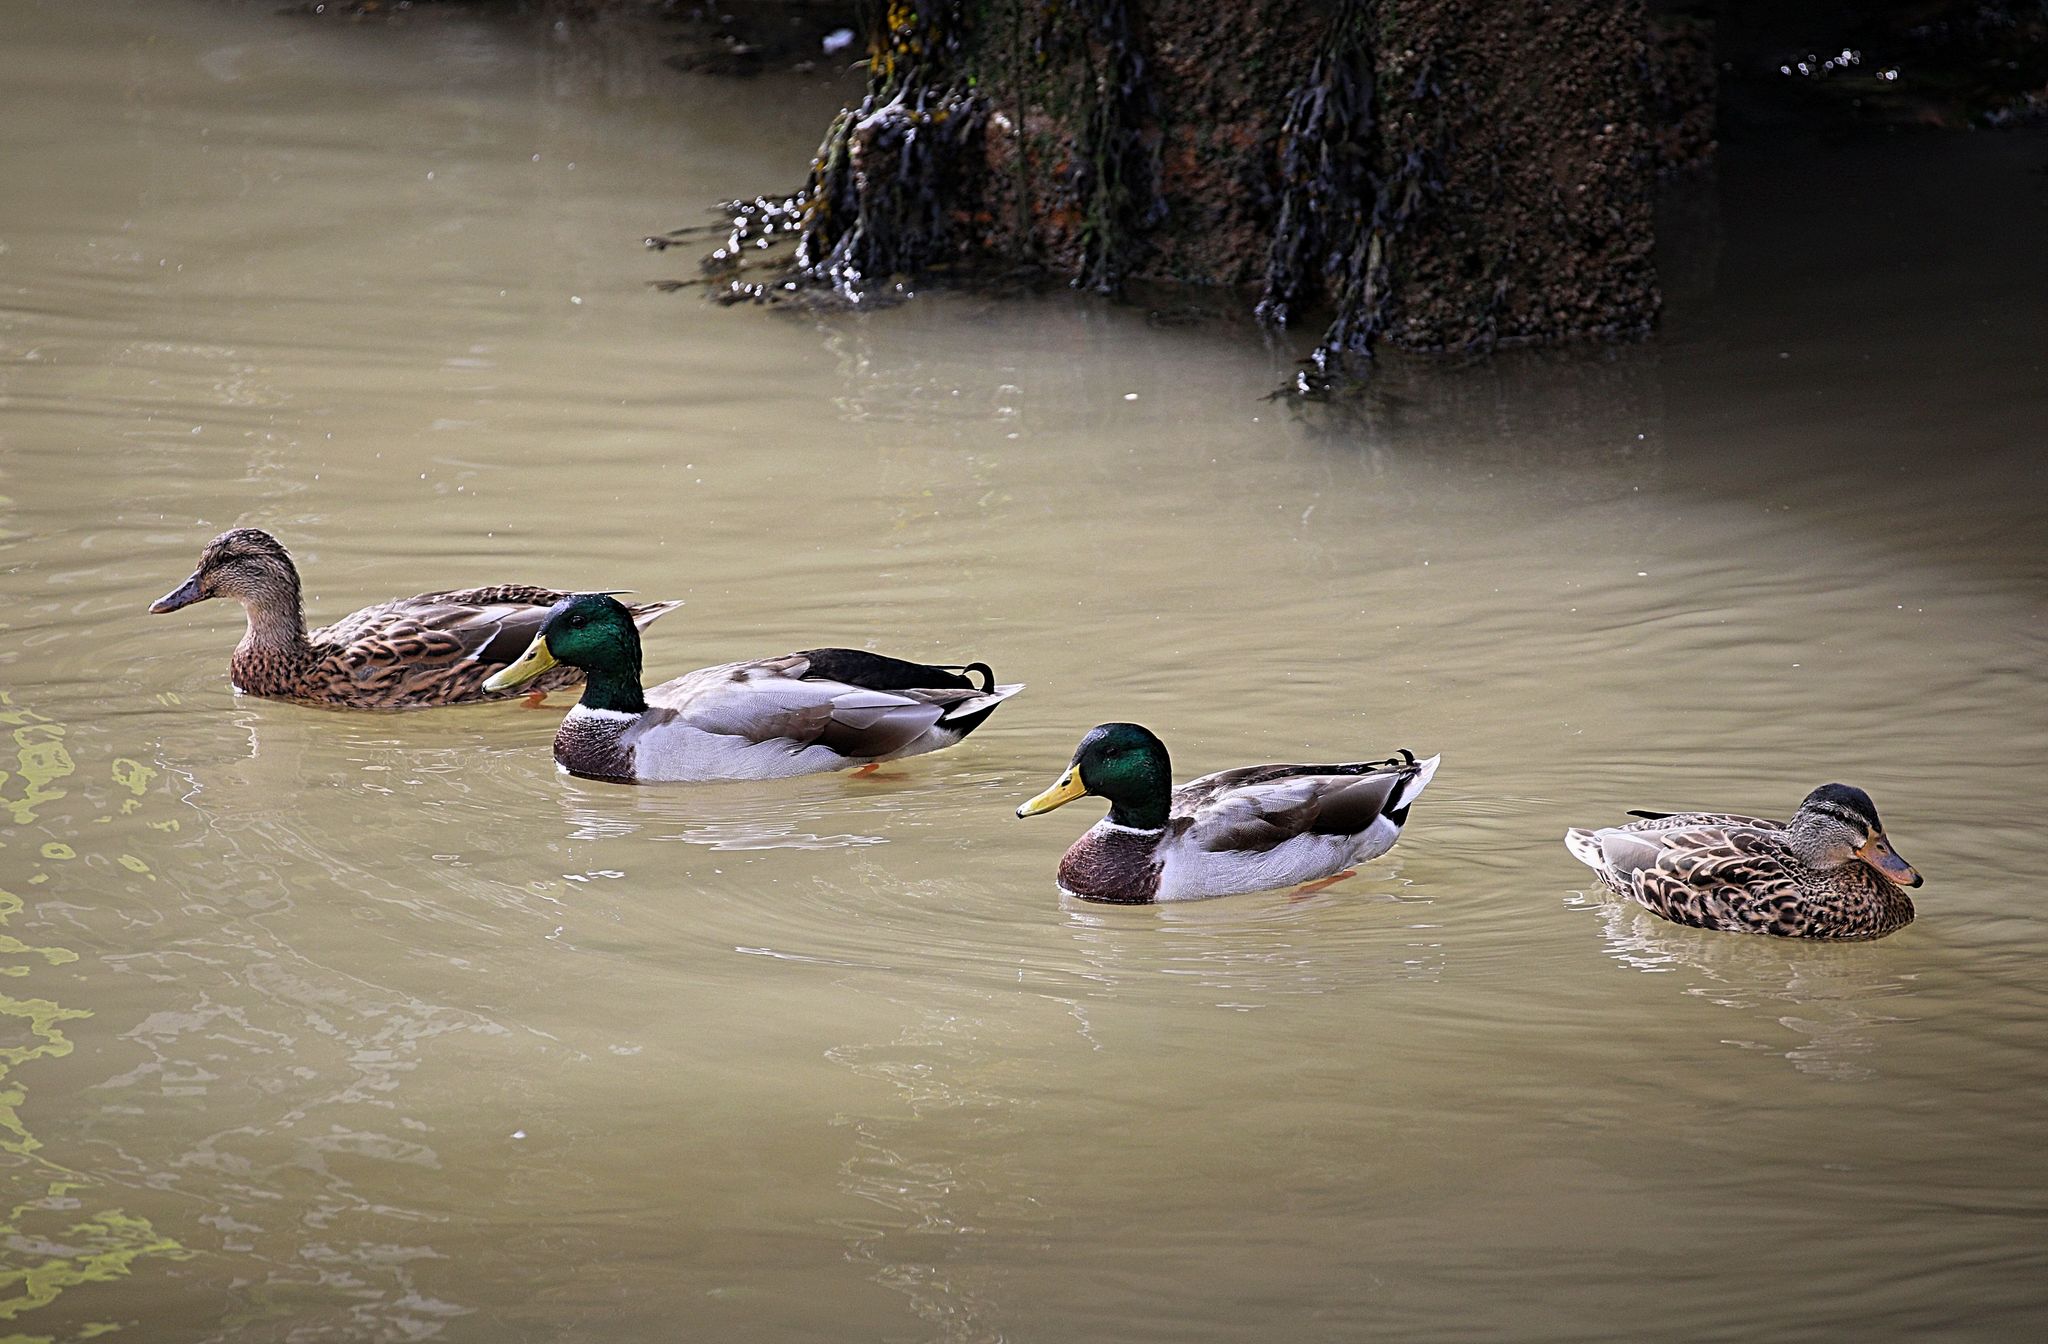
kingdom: Animalia
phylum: Chordata
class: Aves
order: Anseriformes
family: Anatidae
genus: Anas
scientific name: Anas platyrhynchos
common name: Mallard
